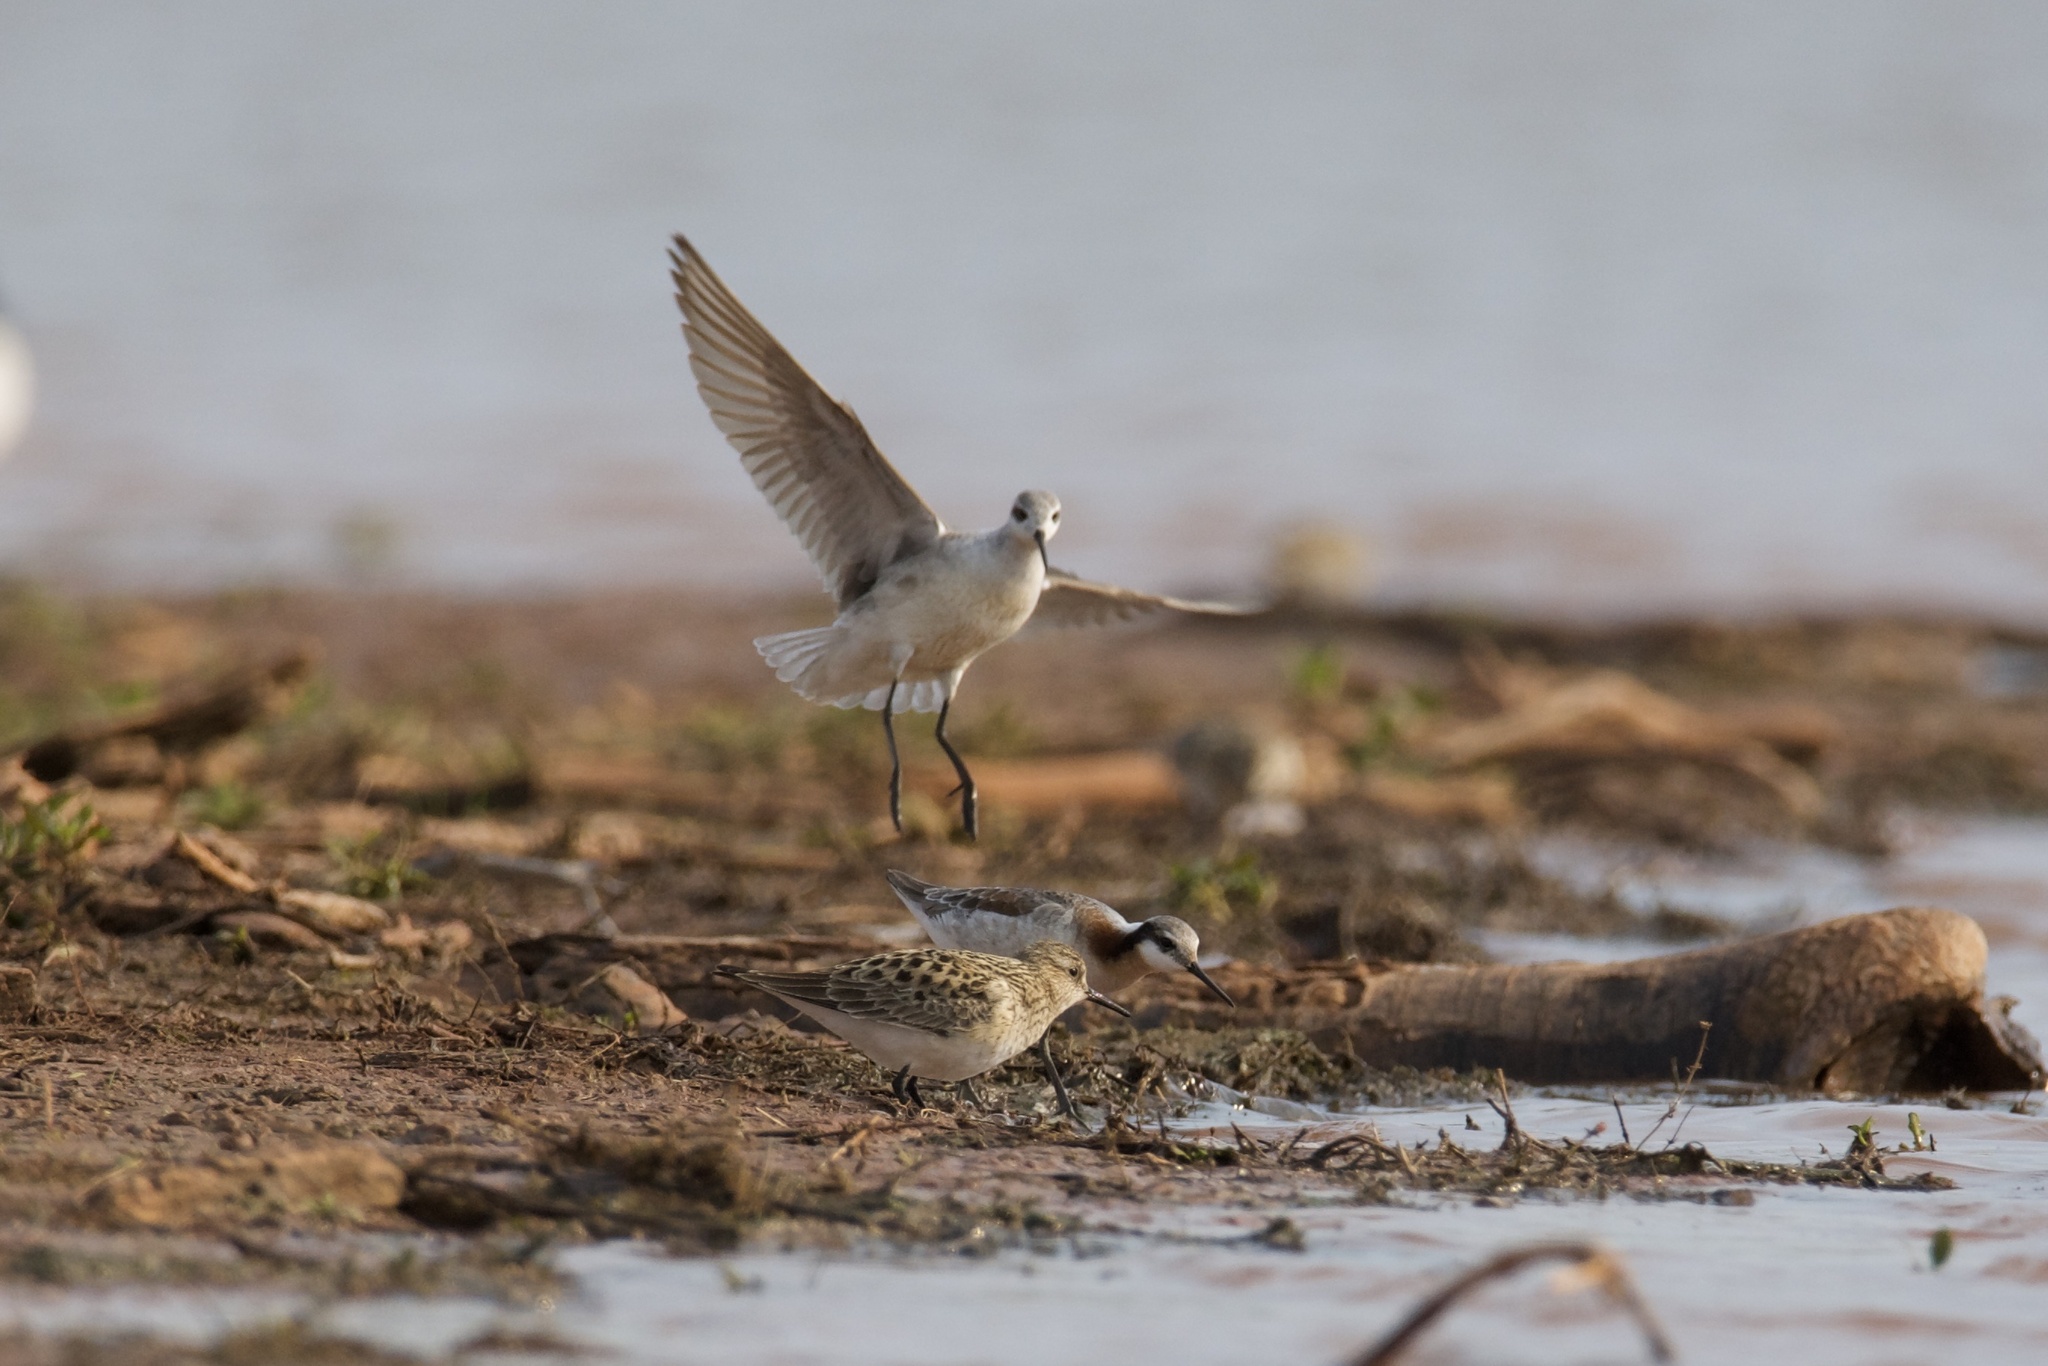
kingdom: Animalia
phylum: Chordata
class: Aves
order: Charadriiformes
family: Scolopacidae
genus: Phalaropus
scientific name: Phalaropus tricolor
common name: Wilson's phalarope
